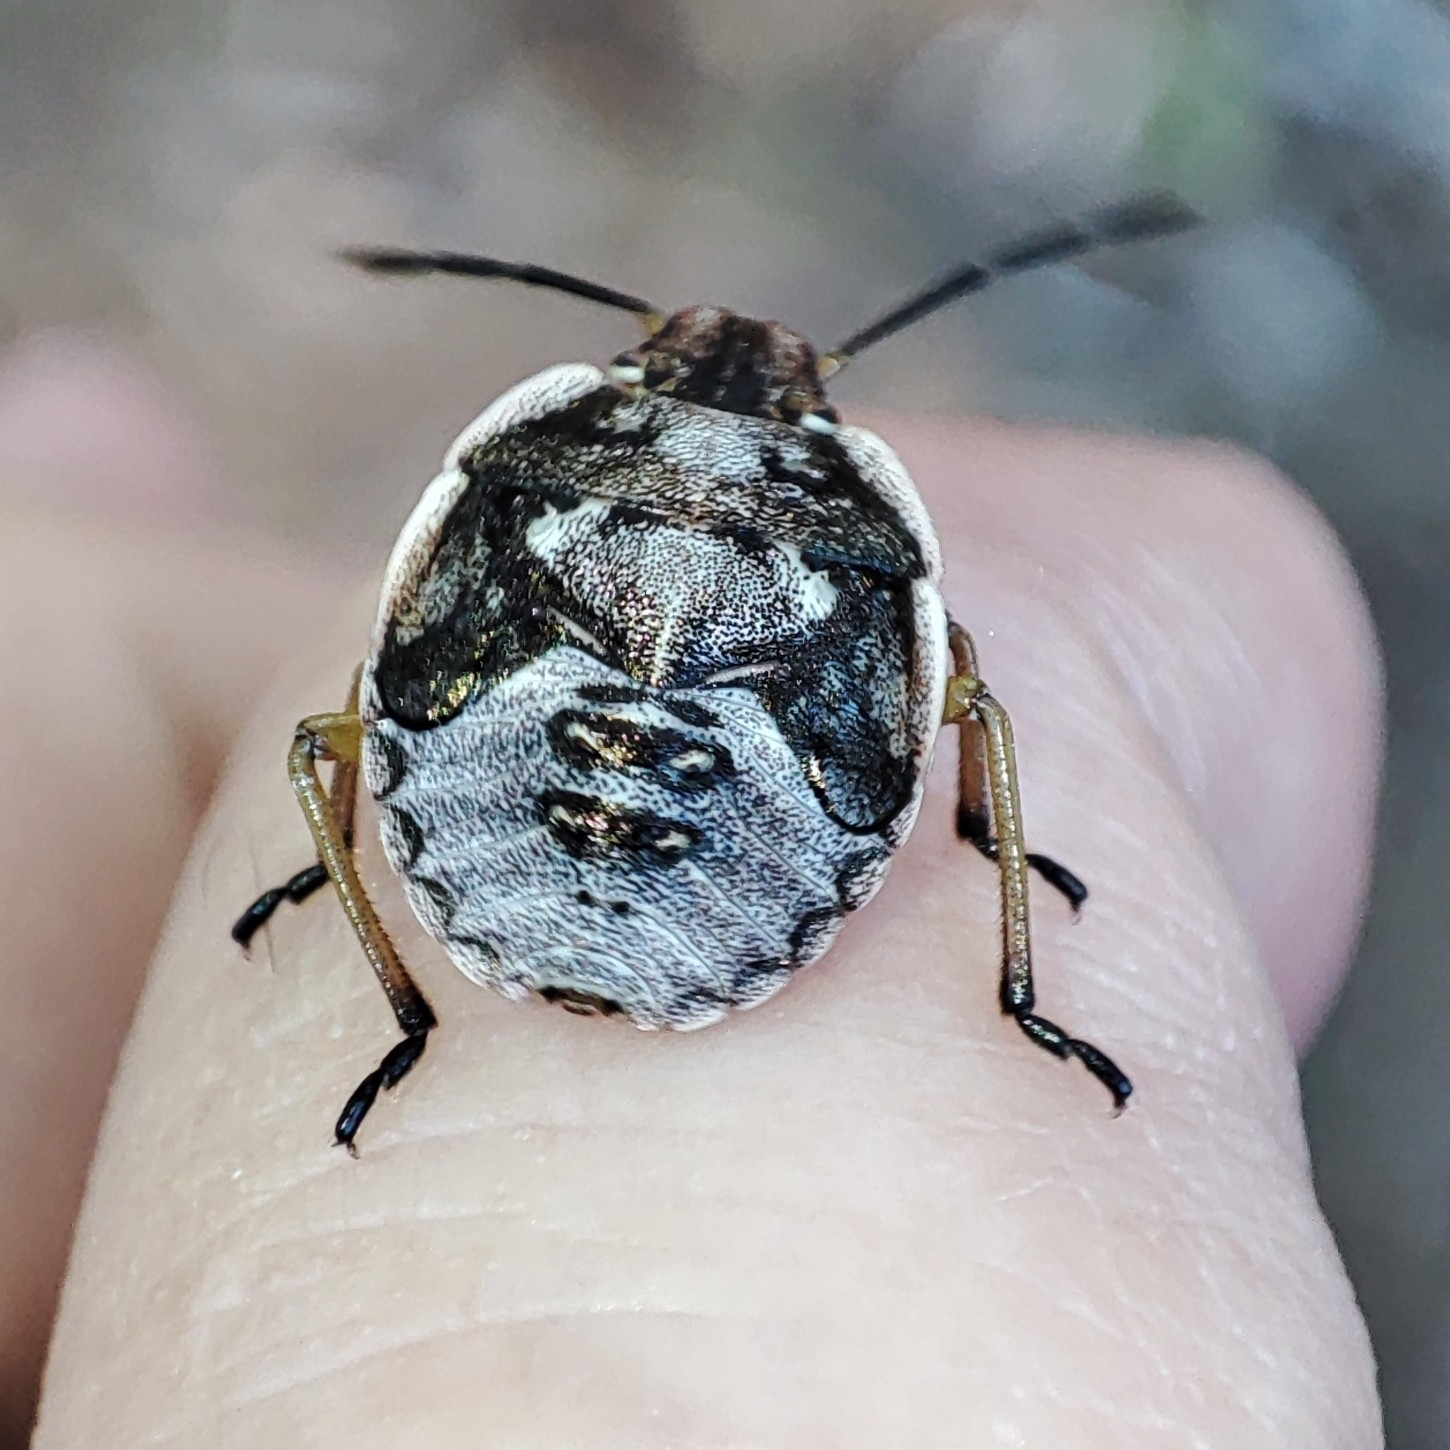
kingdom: Animalia
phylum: Arthropoda
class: Insecta
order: Hemiptera
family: Pentatomidae
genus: Chlorochroa
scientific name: Chlorochroa pinicola
